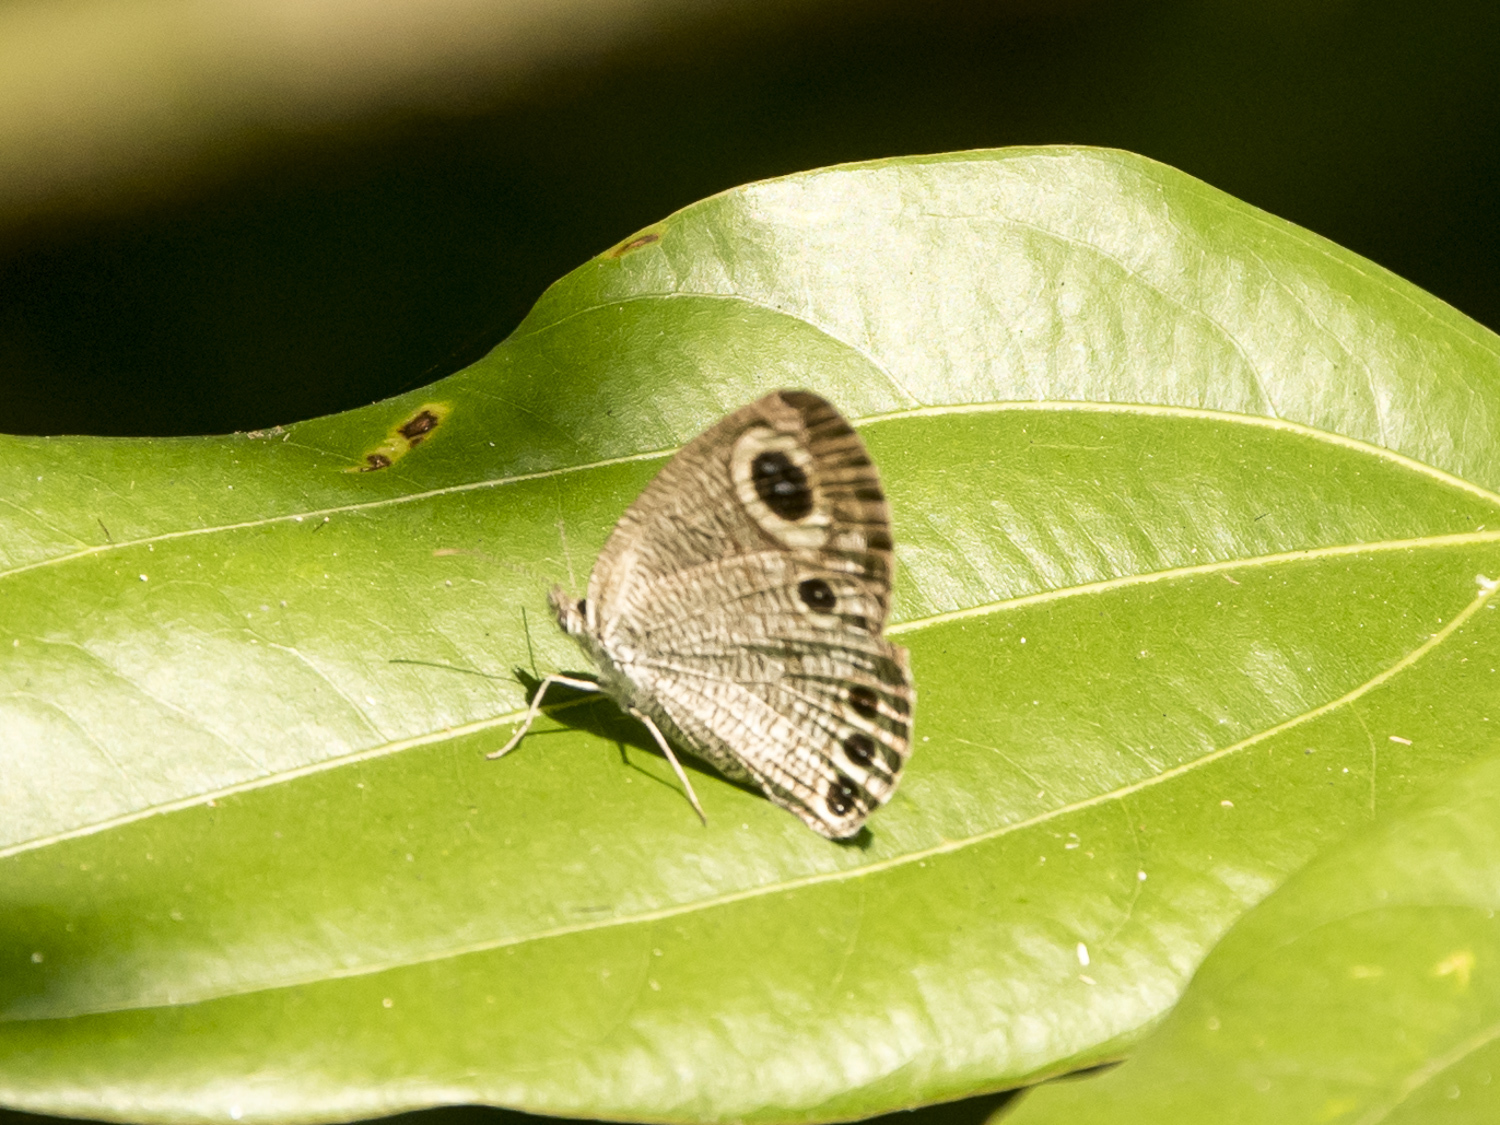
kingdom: Animalia
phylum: Arthropoda
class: Insecta
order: Lepidoptera
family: Nymphalidae
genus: Ypthima
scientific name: Ypthima huebneri
